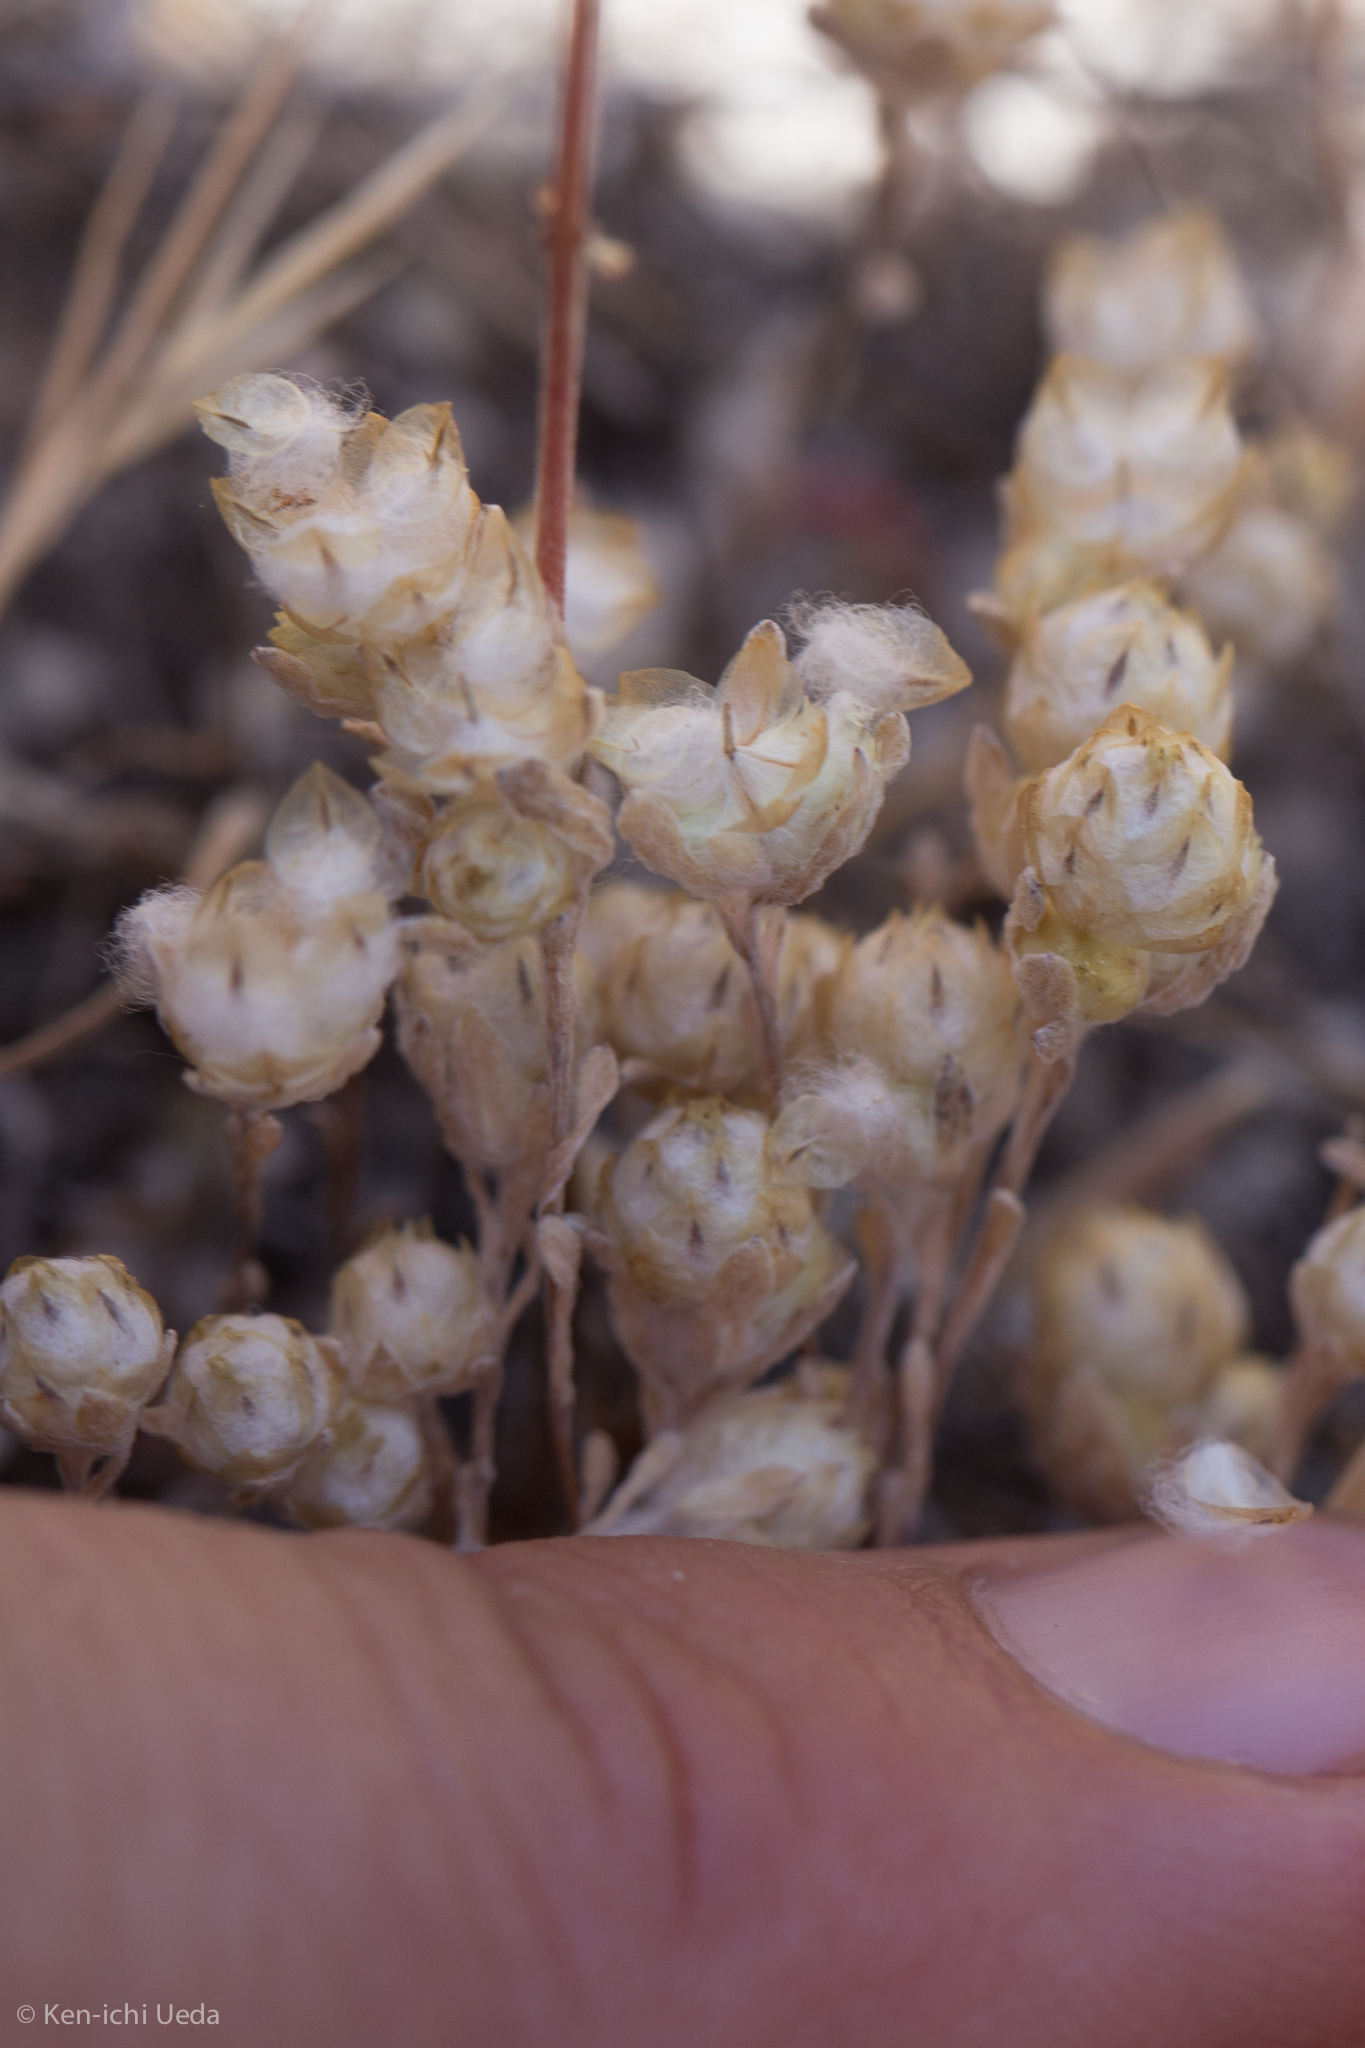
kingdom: Plantae
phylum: Tracheophyta
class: Magnoliopsida
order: Asterales
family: Asteraceae
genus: Stylocline
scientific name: Stylocline gnaphaloides
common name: Everlasting nest-straw
